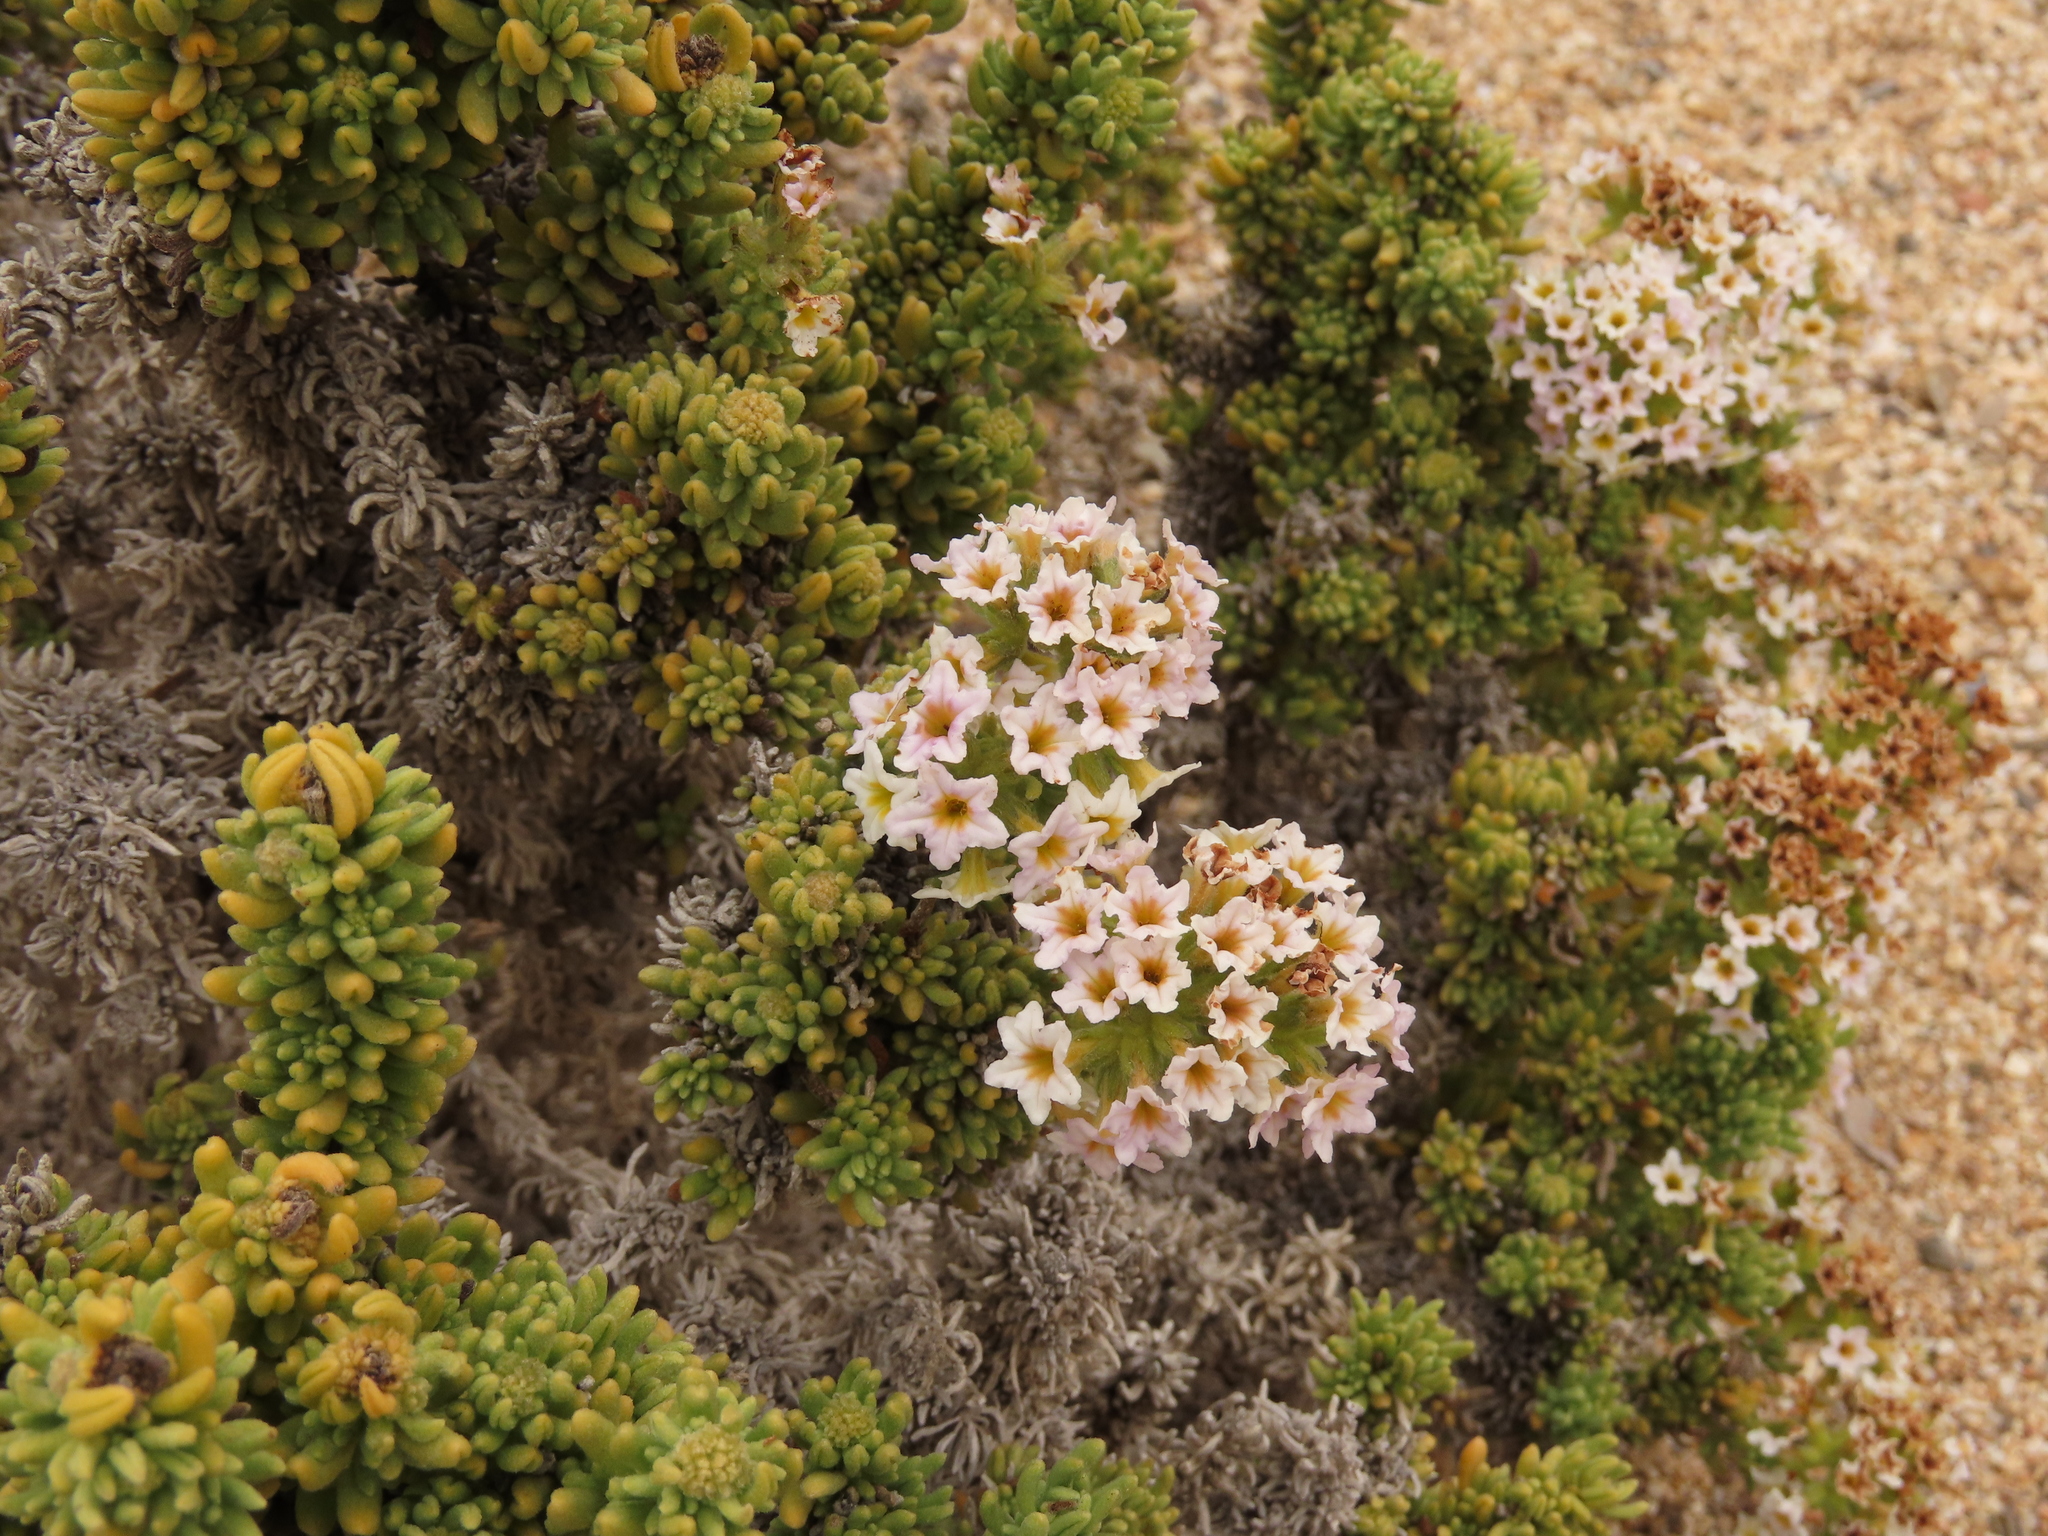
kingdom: Plantae
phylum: Tracheophyta
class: Magnoliopsida
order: Boraginales
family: Heliotropiaceae
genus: Heliotropium
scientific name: Heliotropium pycnophyllum
